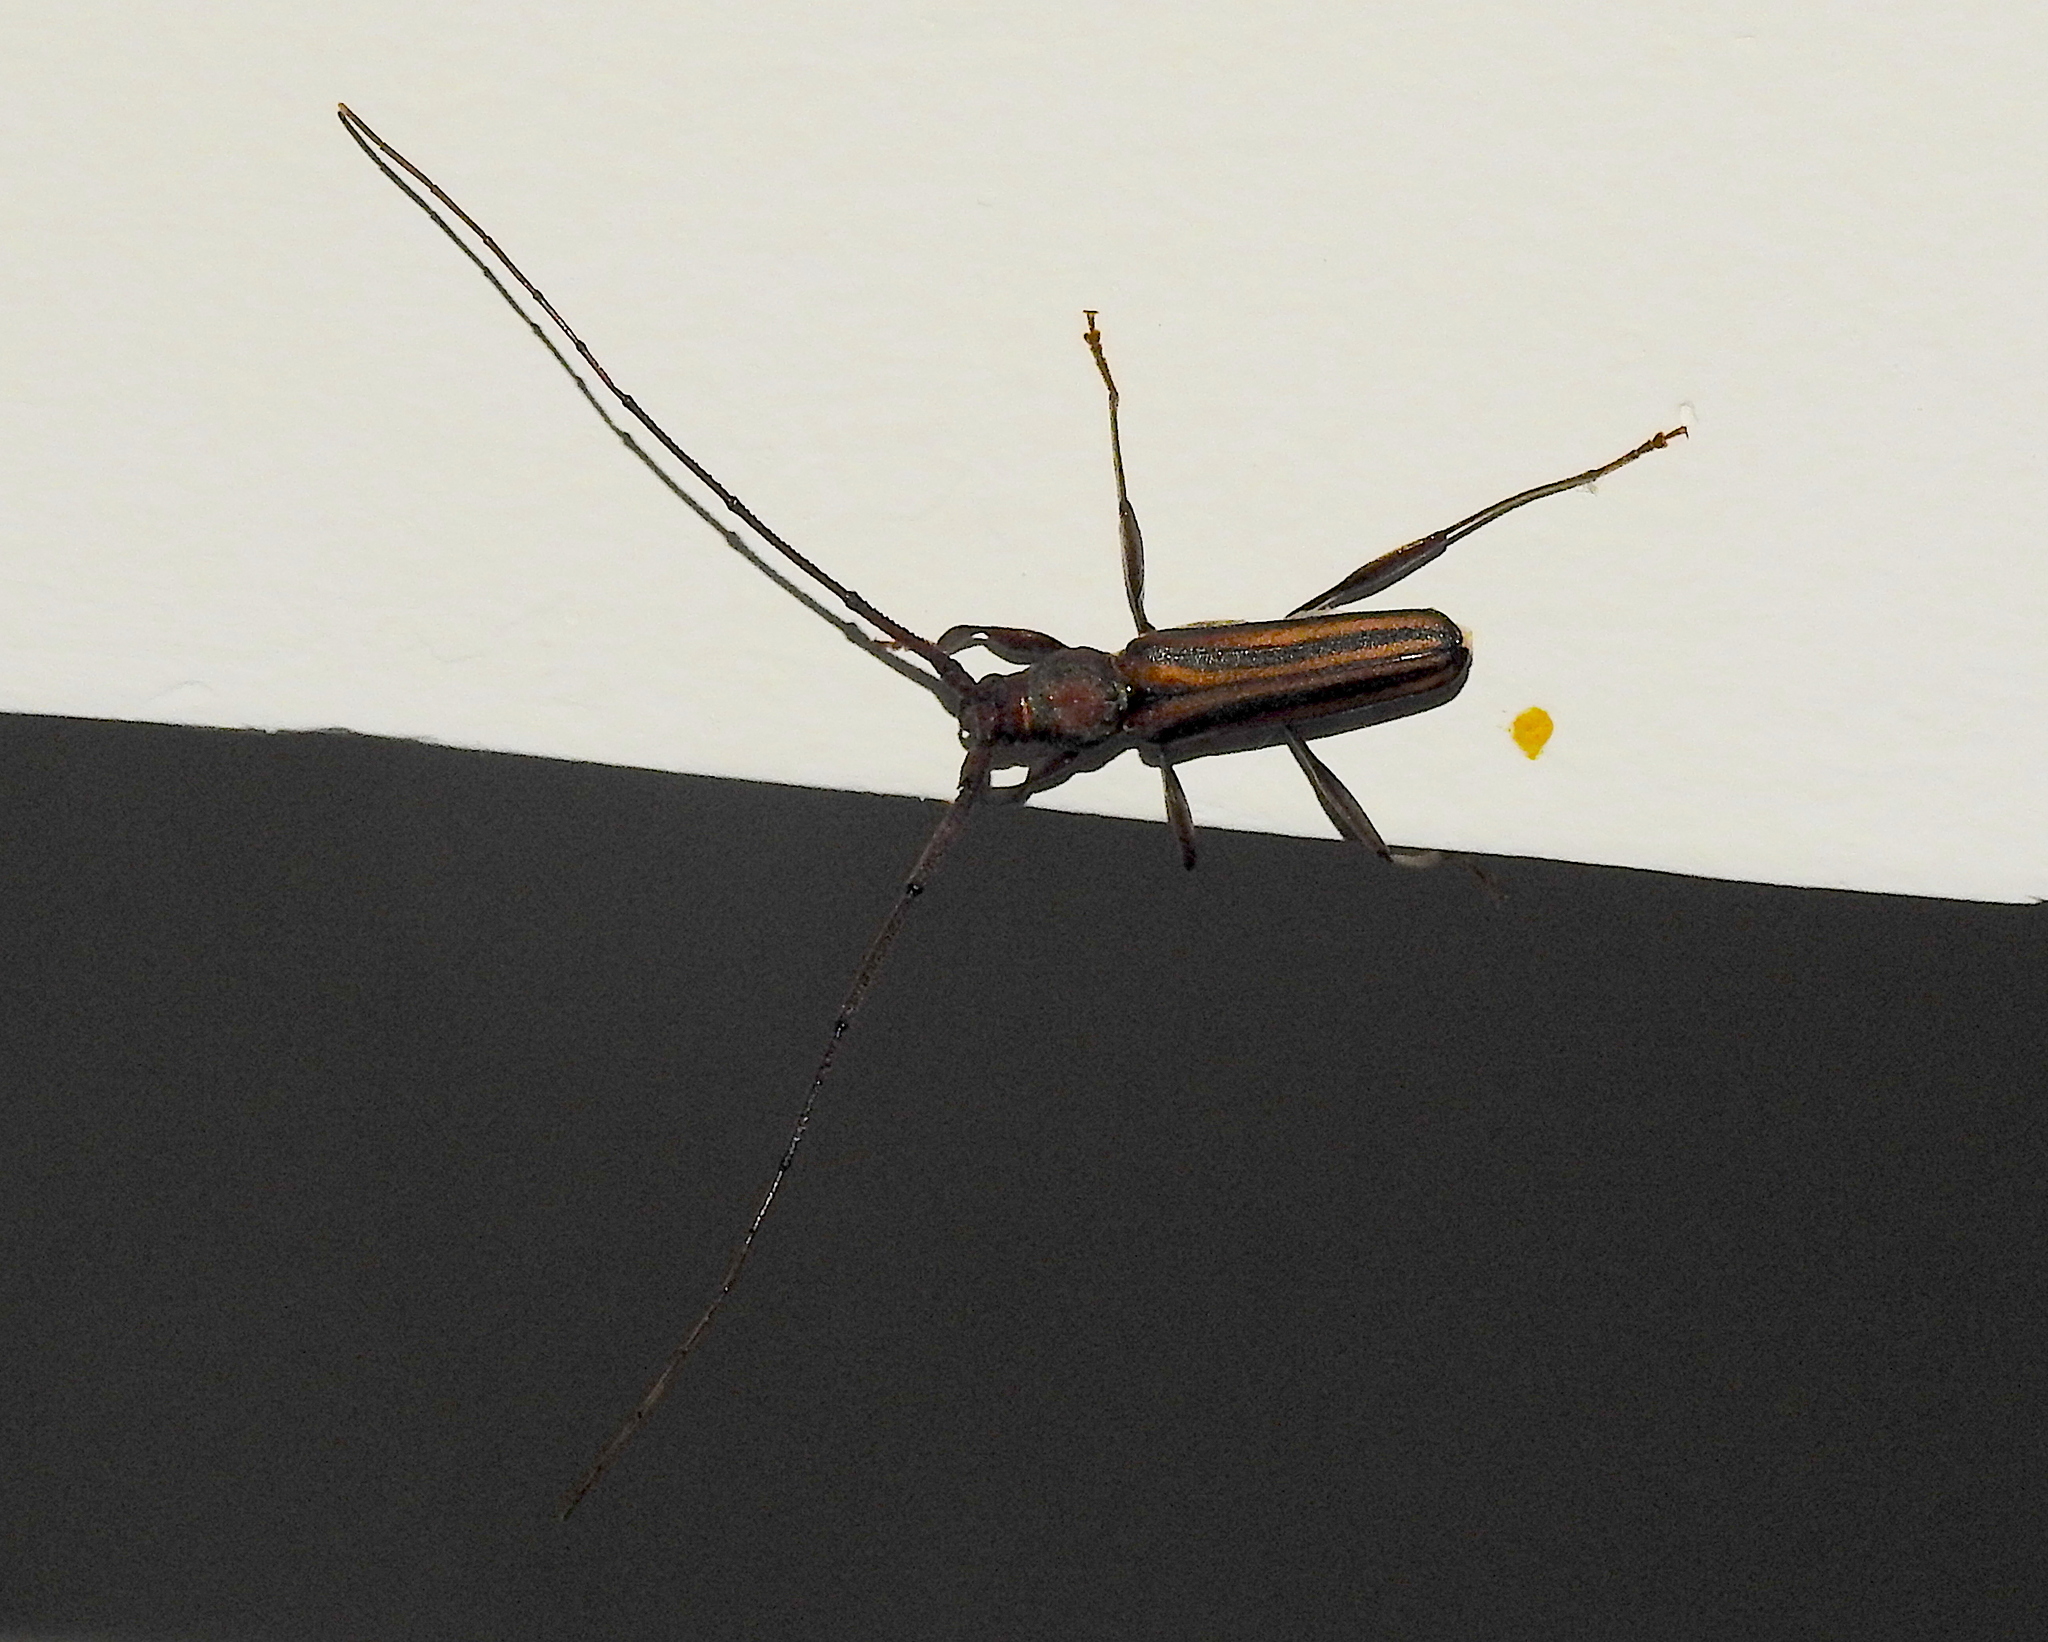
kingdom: Animalia
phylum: Arthropoda
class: Insecta
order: Coleoptera
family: Cerambycidae
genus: Xystrocera
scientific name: Xystrocera globosa
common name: Peach-tree longhorn
